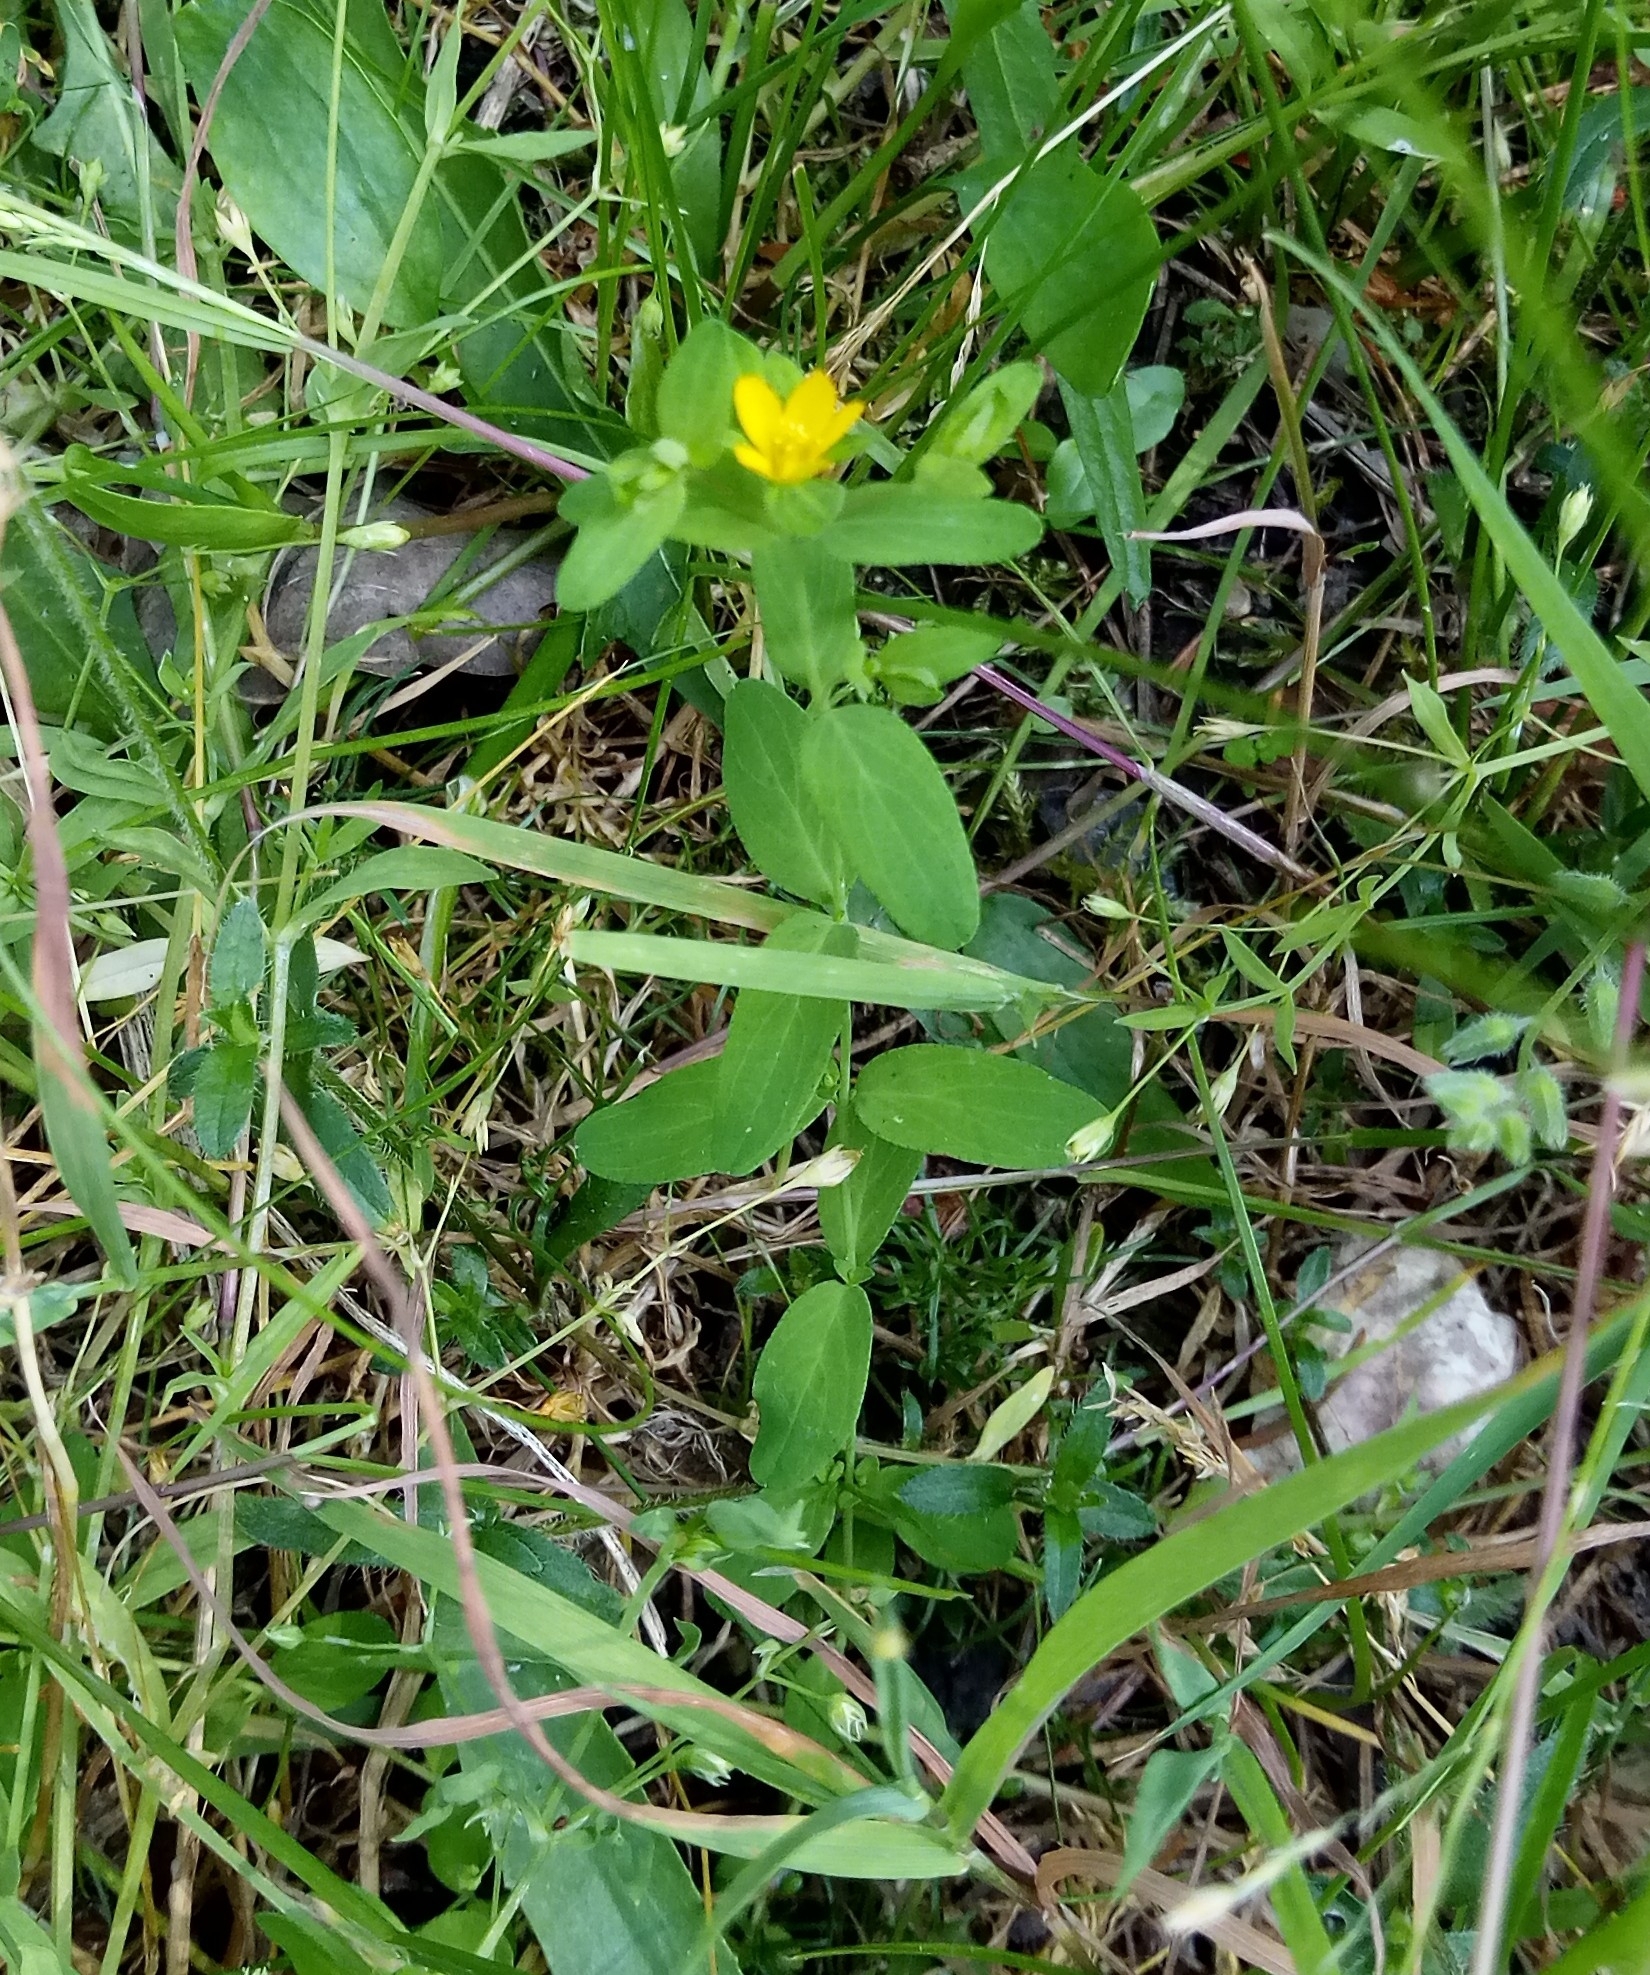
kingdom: Plantae
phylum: Tracheophyta
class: Magnoliopsida
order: Malpighiales
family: Hypericaceae
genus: Hypericum
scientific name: Hypericum humifusum
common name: Trailing st. john's-wort
